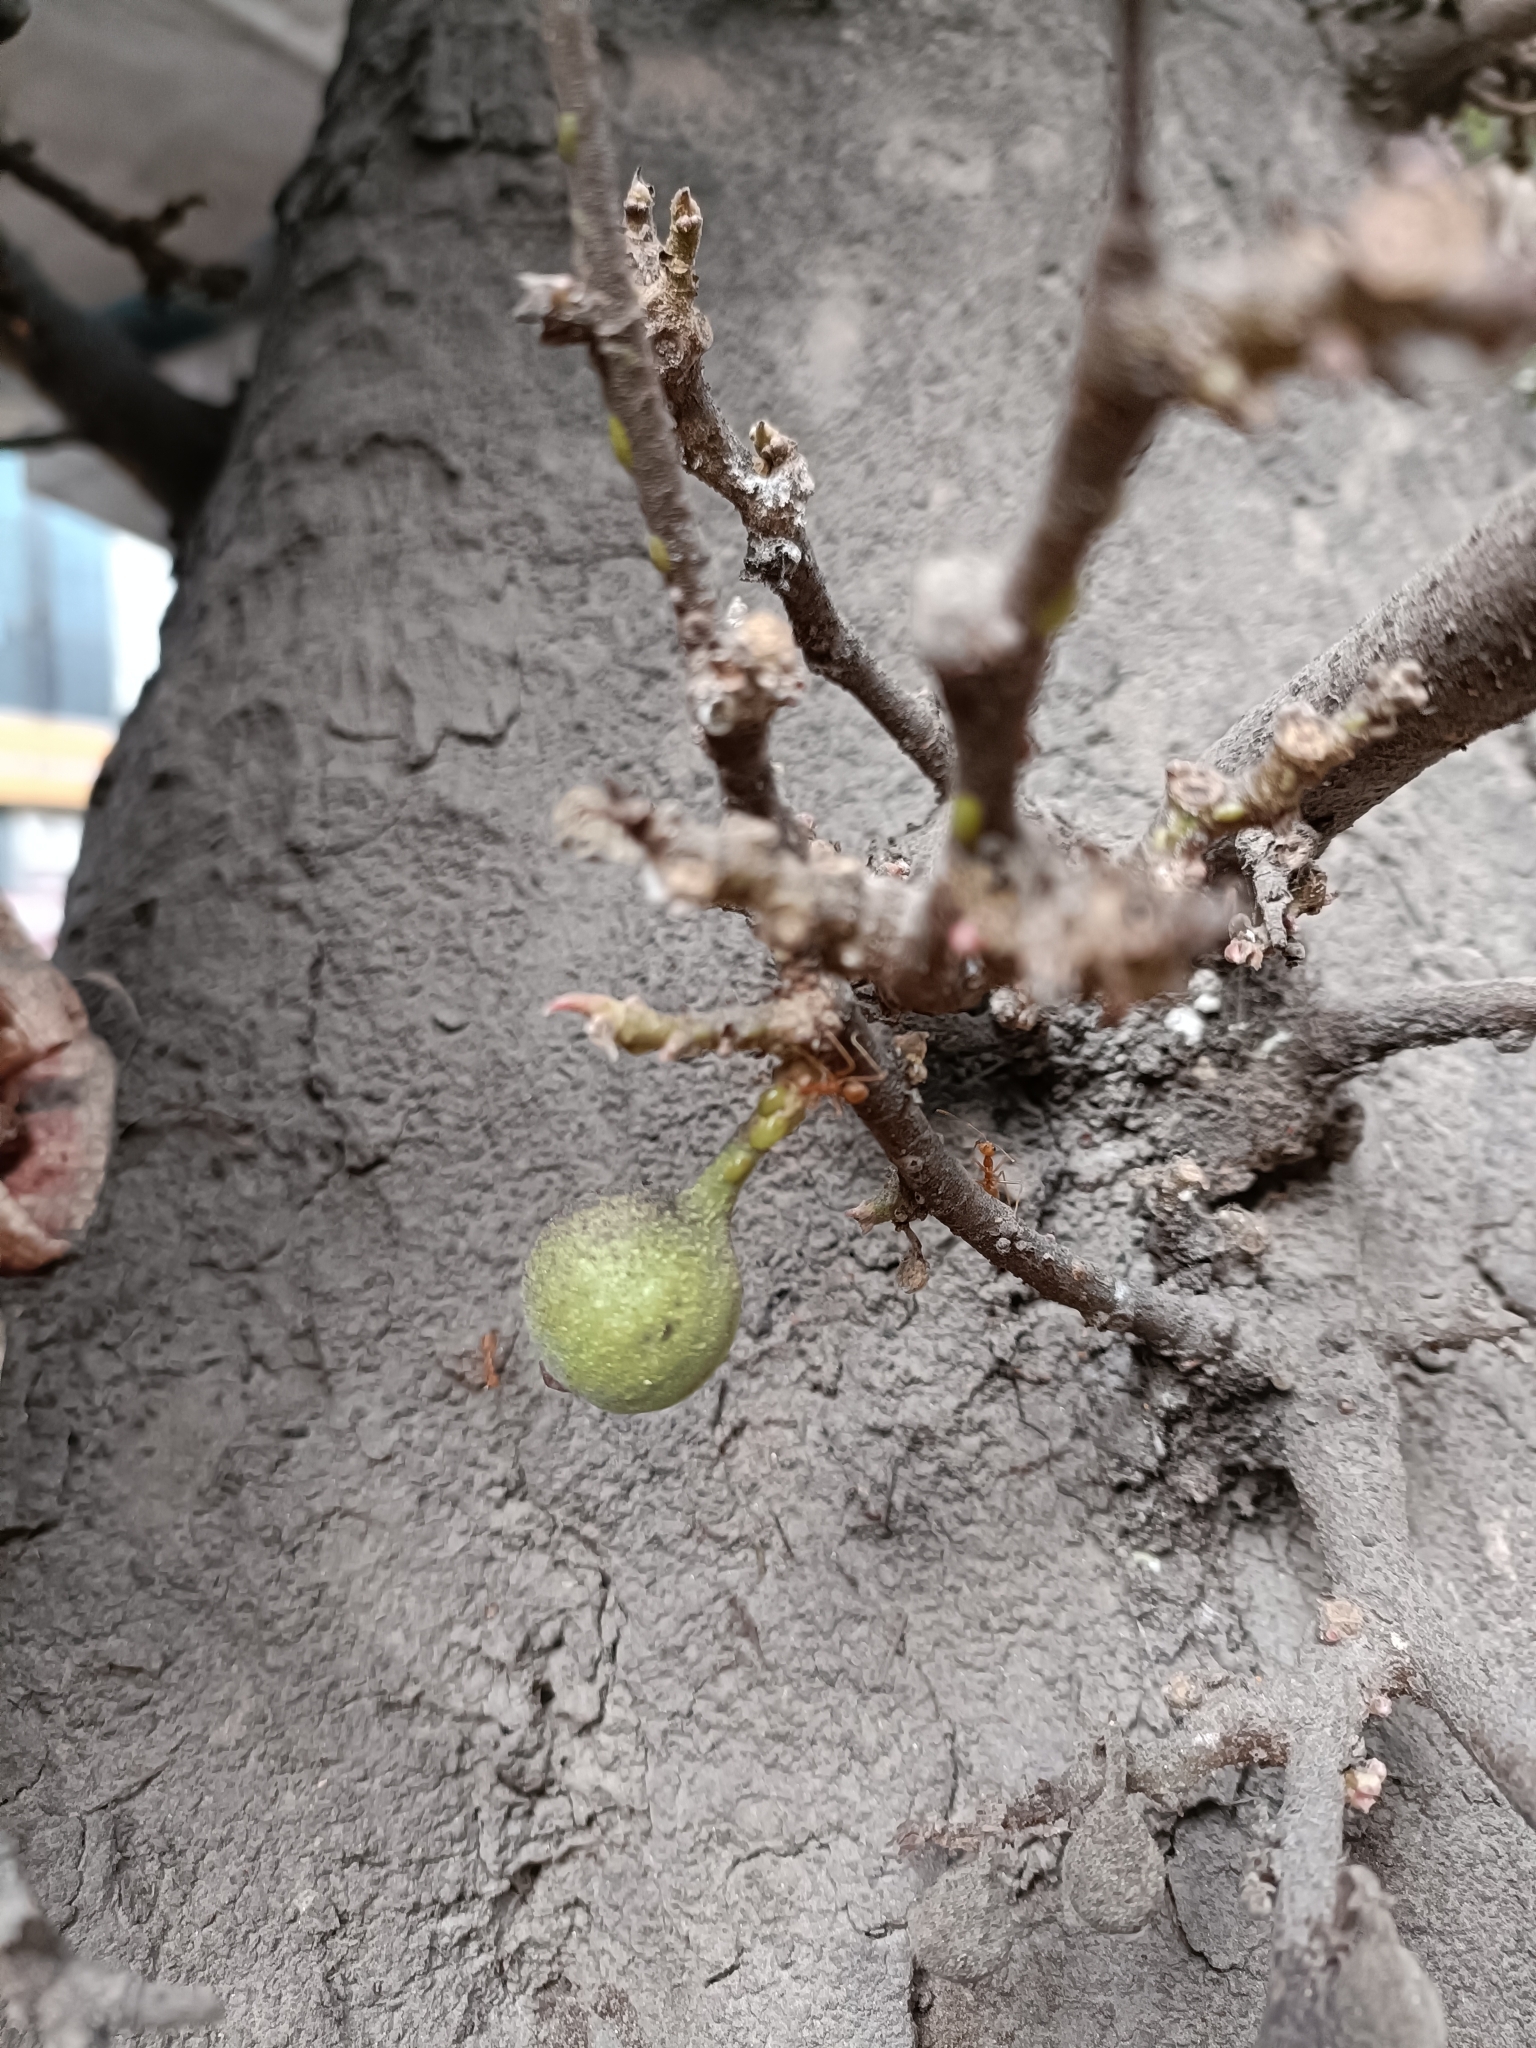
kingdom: Plantae
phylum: Tracheophyta
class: Magnoliopsida
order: Rosales
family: Moraceae
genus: Ficus
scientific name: Ficus racemosa
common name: Cluster fig
